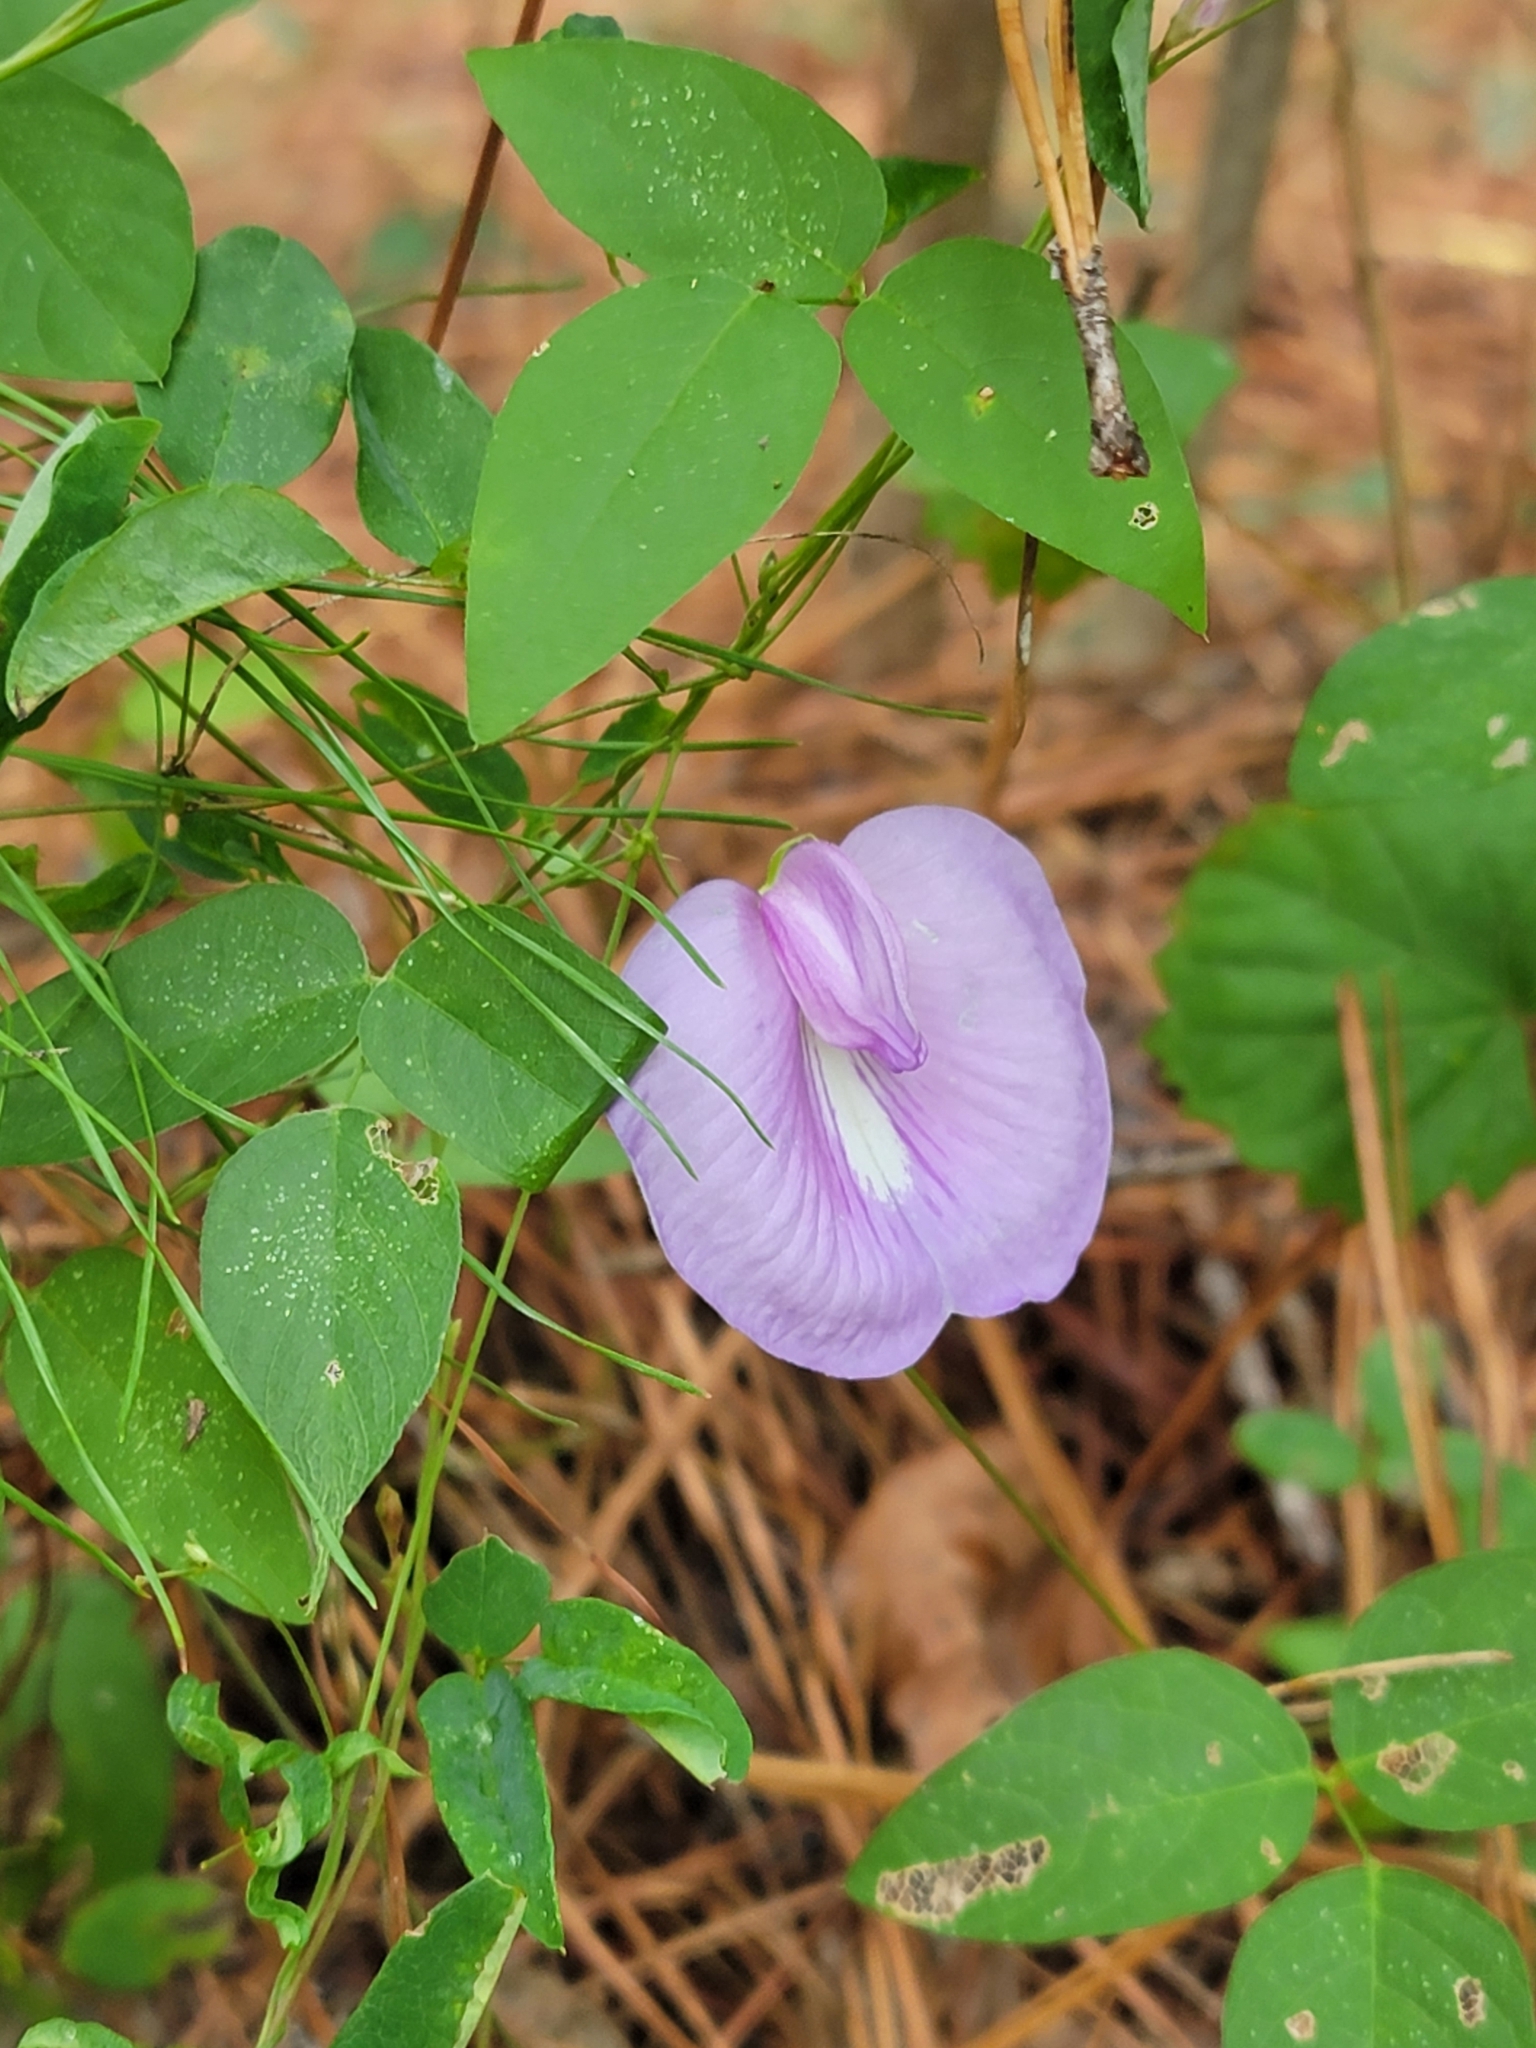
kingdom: Plantae
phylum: Tracheophyta
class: Magnoliopsida
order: Fabales
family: Fabaceae
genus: Centrosema
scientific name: Centrosema virginianum
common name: Butterfly-pea
